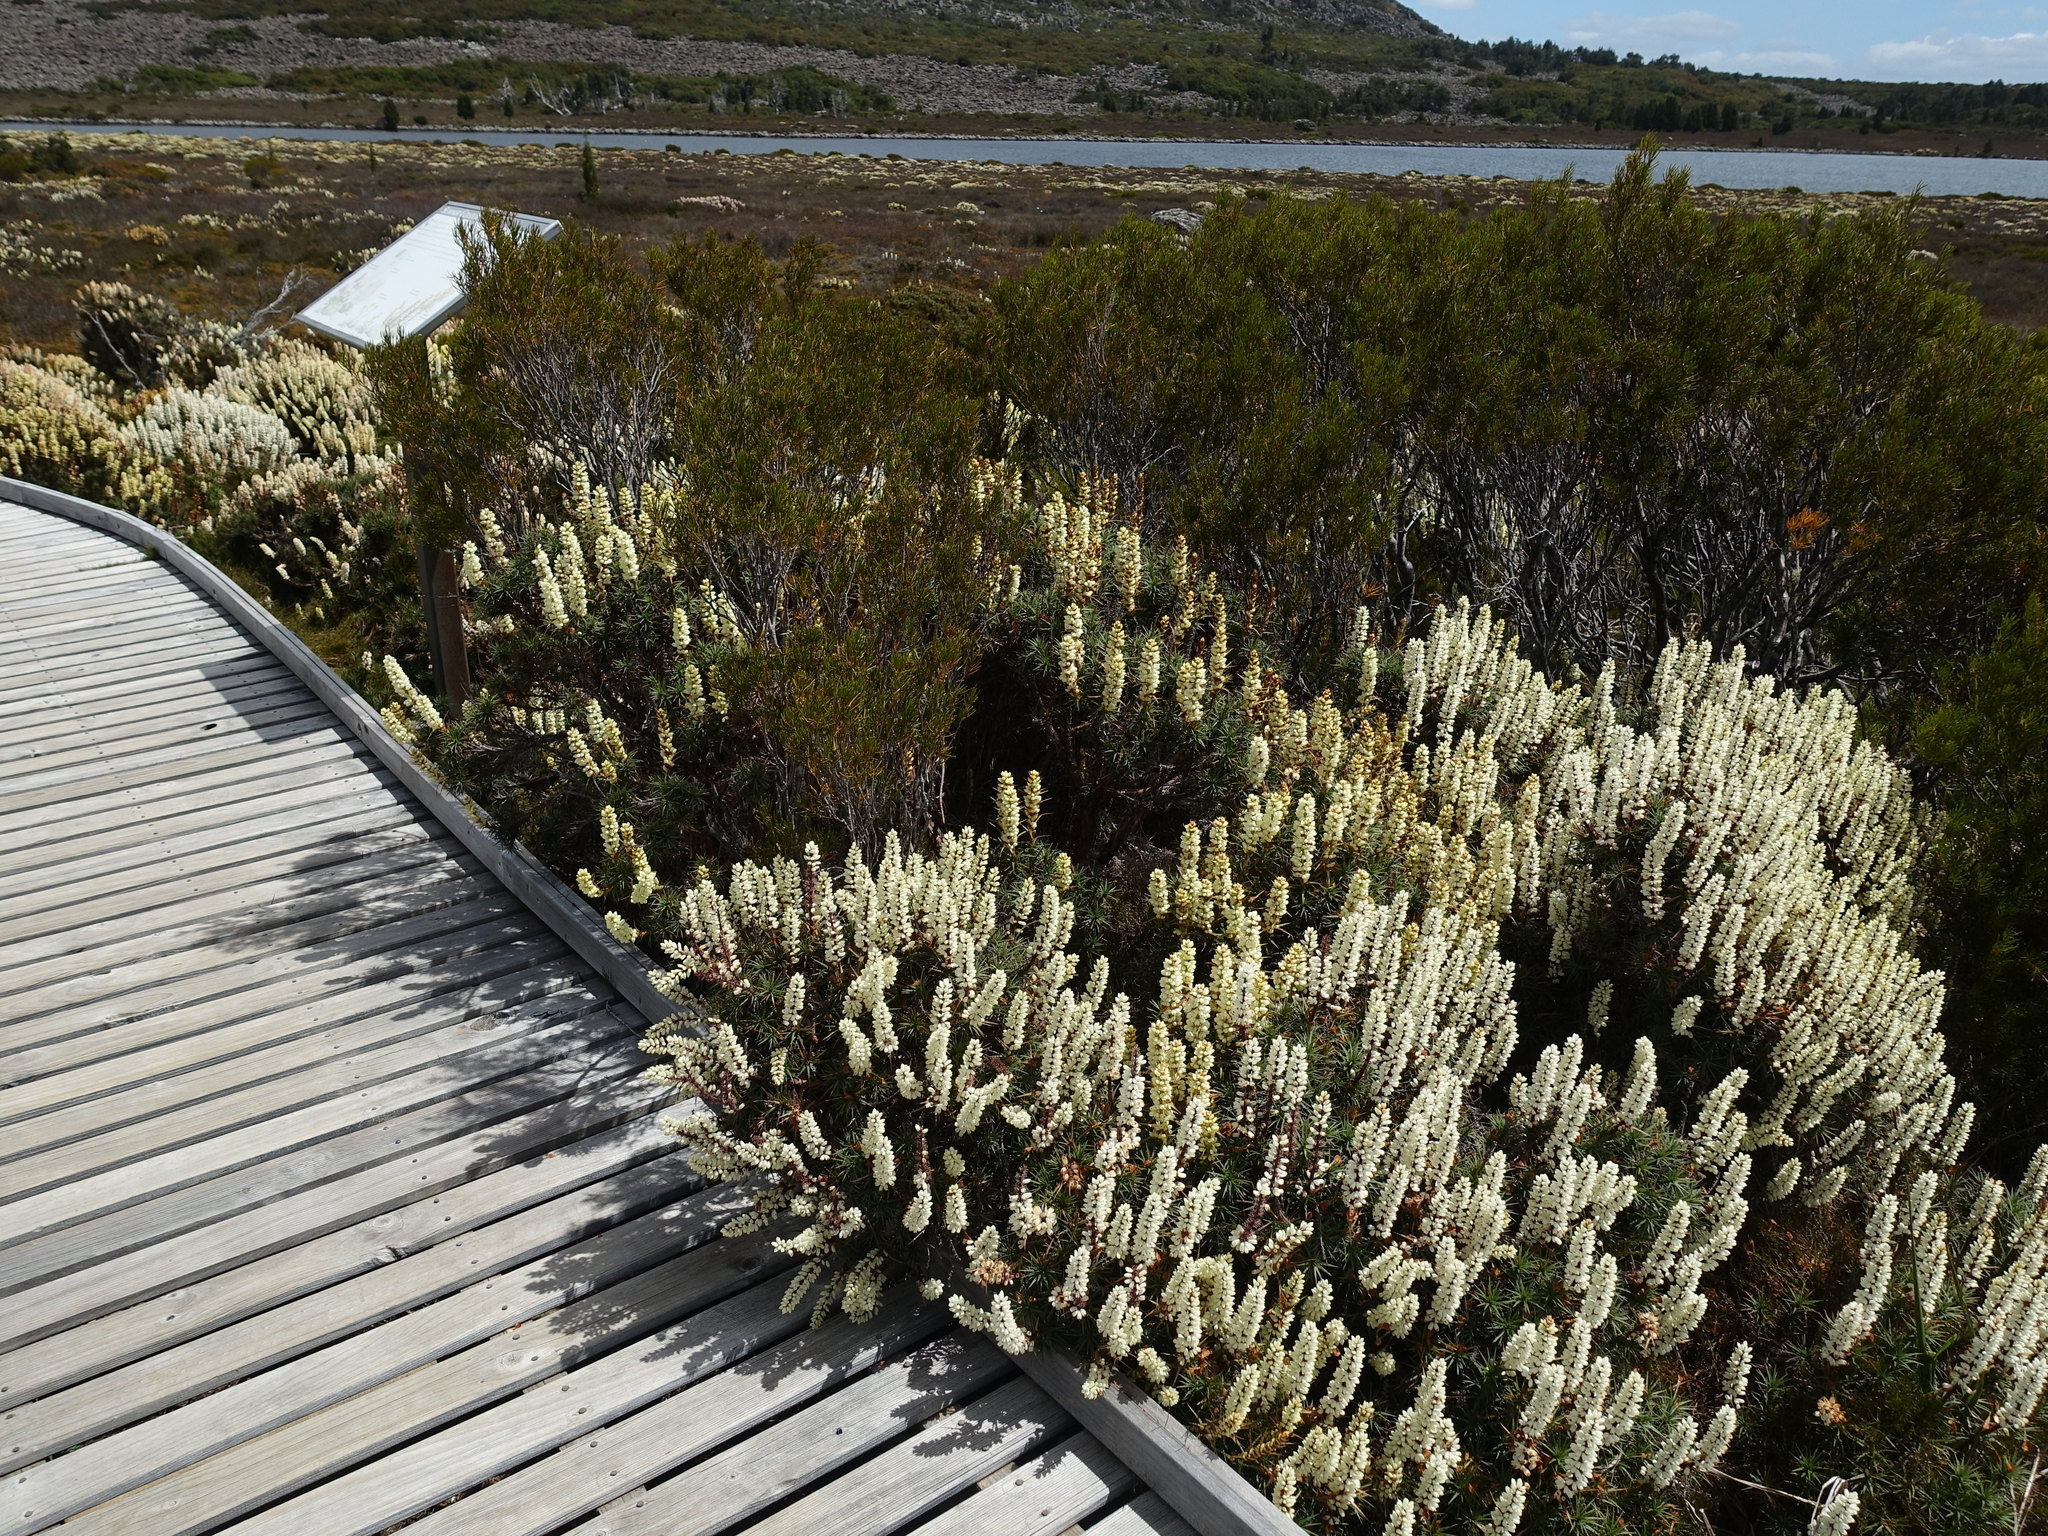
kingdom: Plantae
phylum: Tracheophyta
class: Magnoliopsida
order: Ericales
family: Ericaceae
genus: Dracophyllum
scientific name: Dracophyllum persistentifolium
